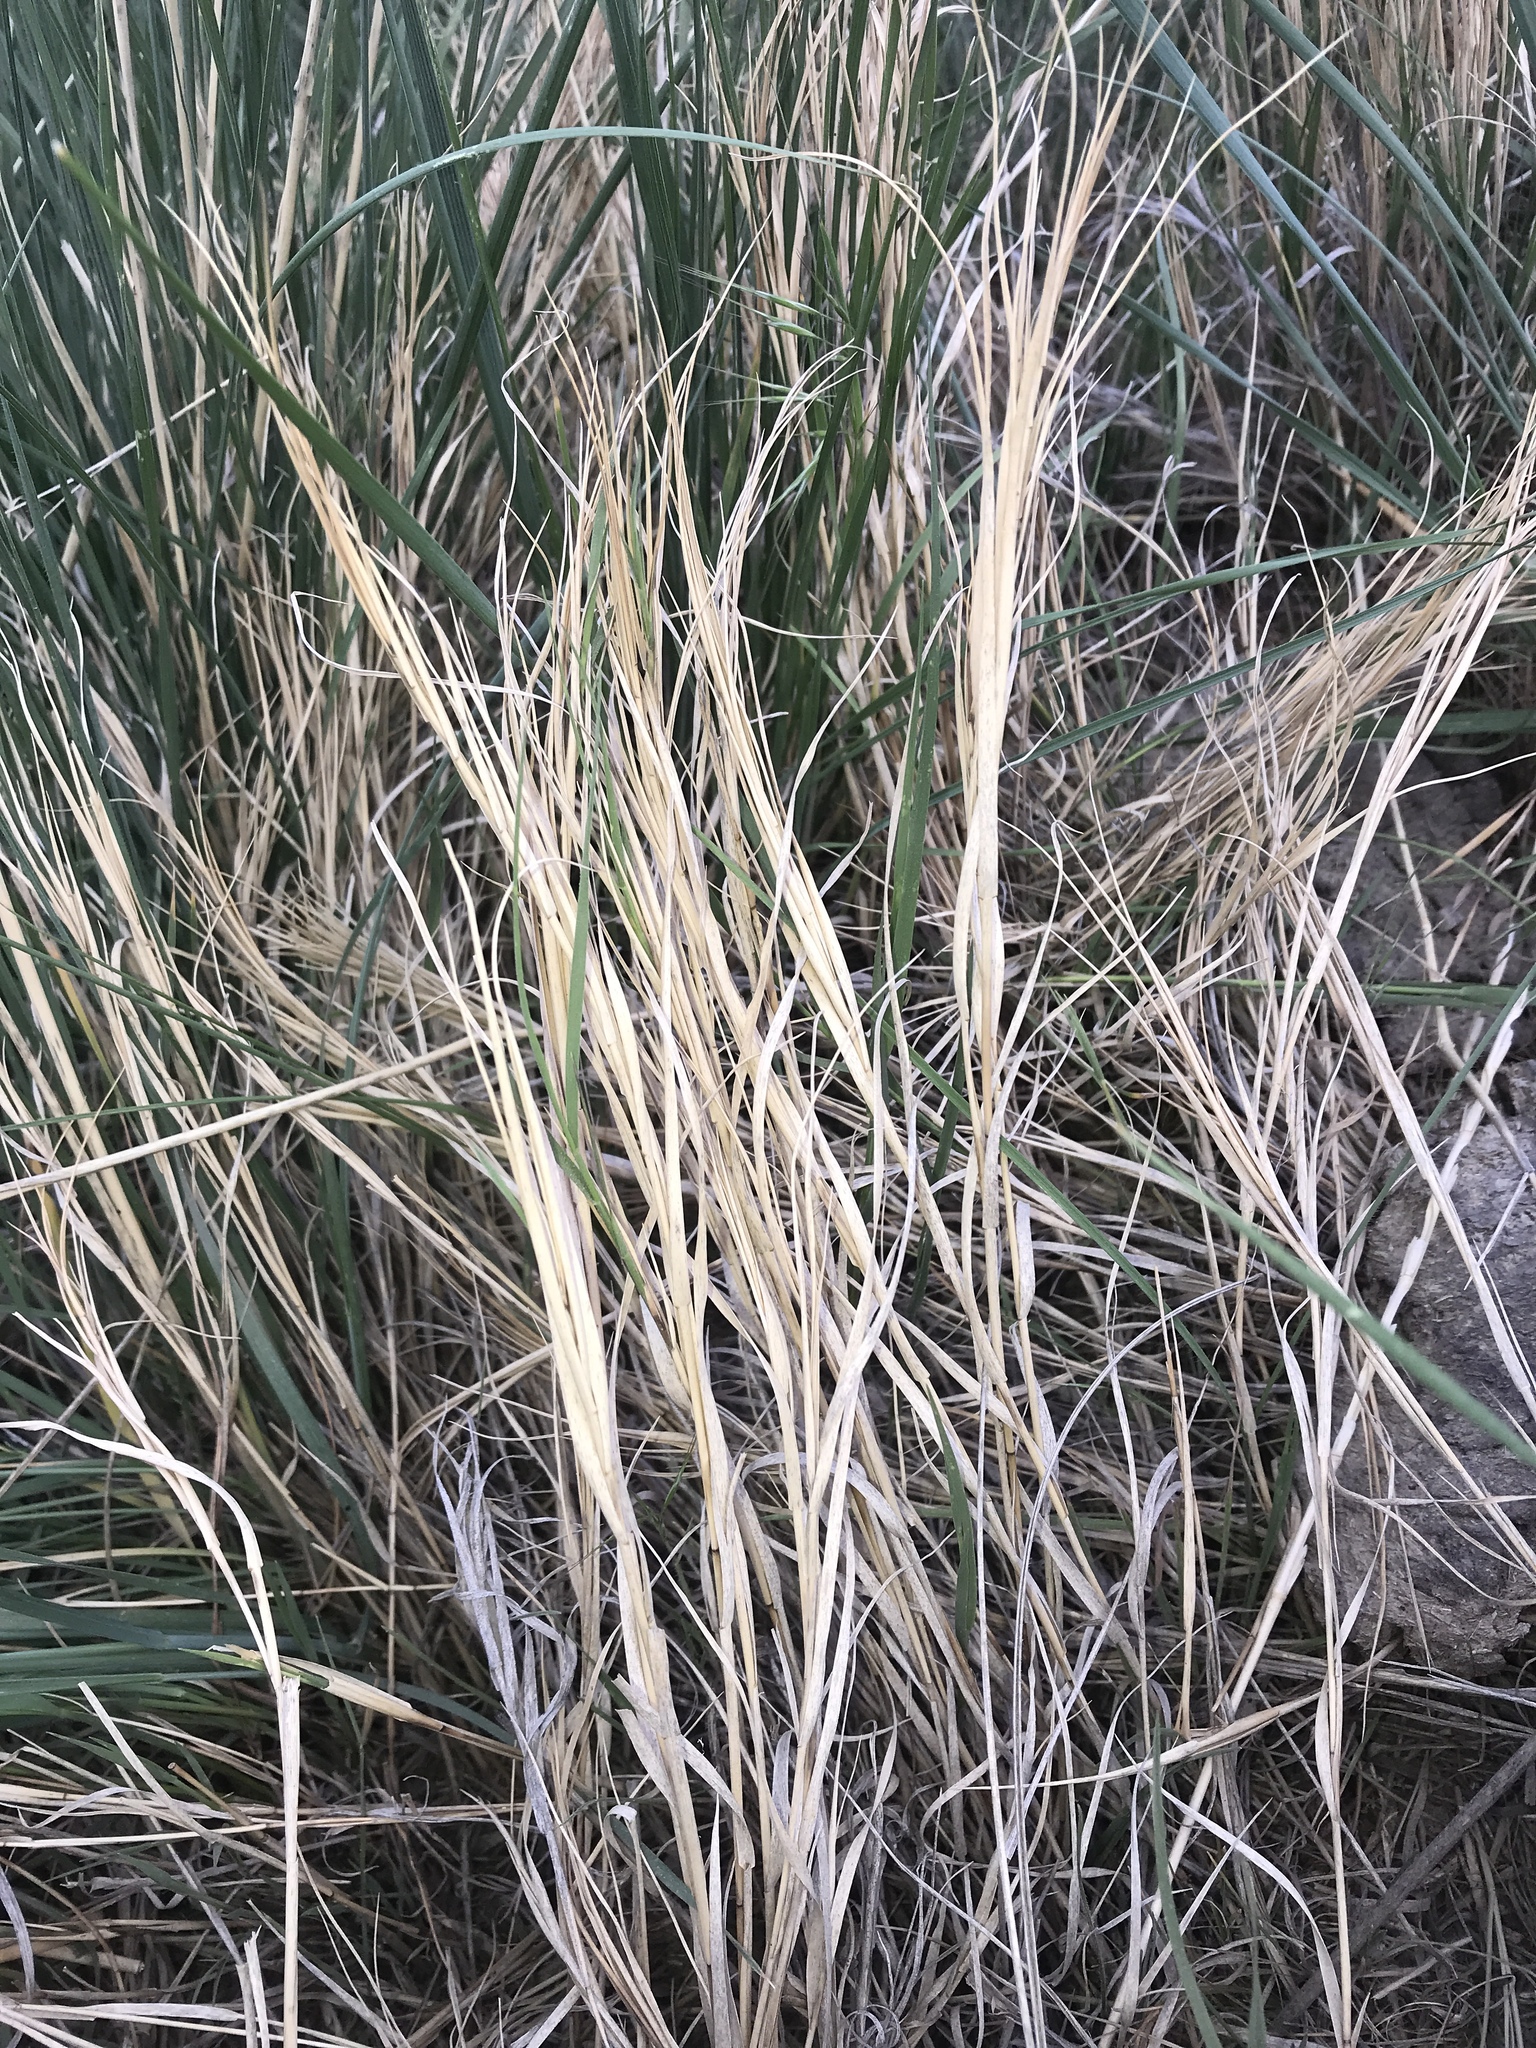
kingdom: Plantae
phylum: Tracheophyta
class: Liliopsida
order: Poales
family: Poaceae
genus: Distichlis
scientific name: Distichlis spicata
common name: Saltgrass
